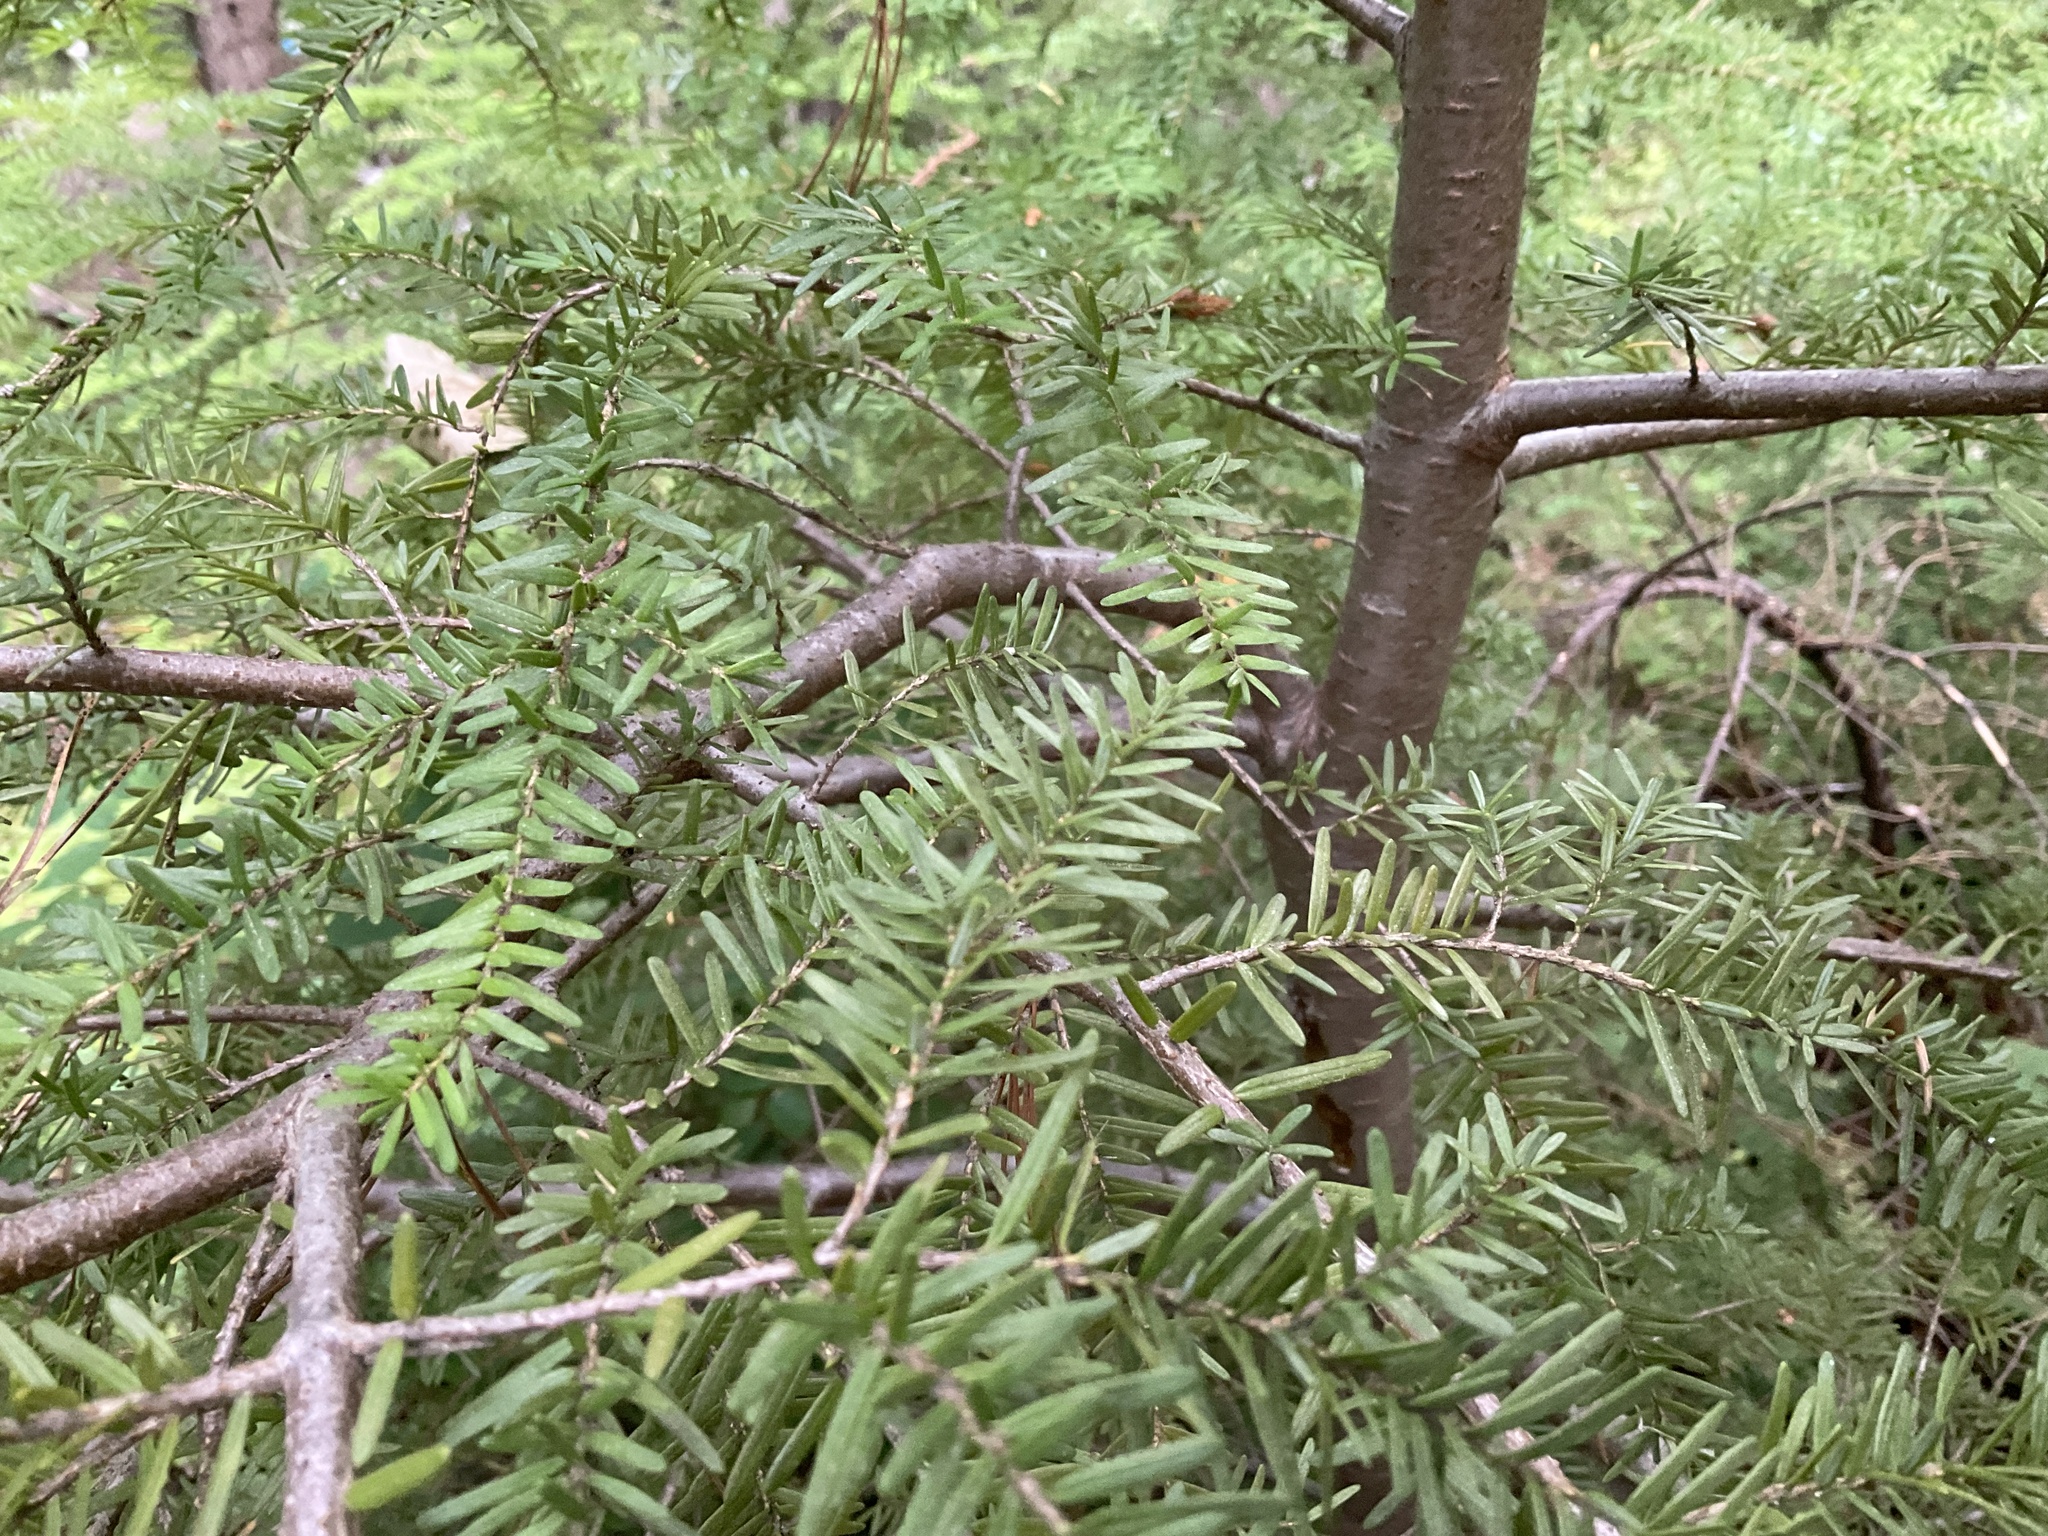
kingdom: Plantae
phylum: Tracheophyta
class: Pinopsida
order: Pinales
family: Pinaceae
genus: Tsuga
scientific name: Tsuga heterophylla
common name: Western hemlock
